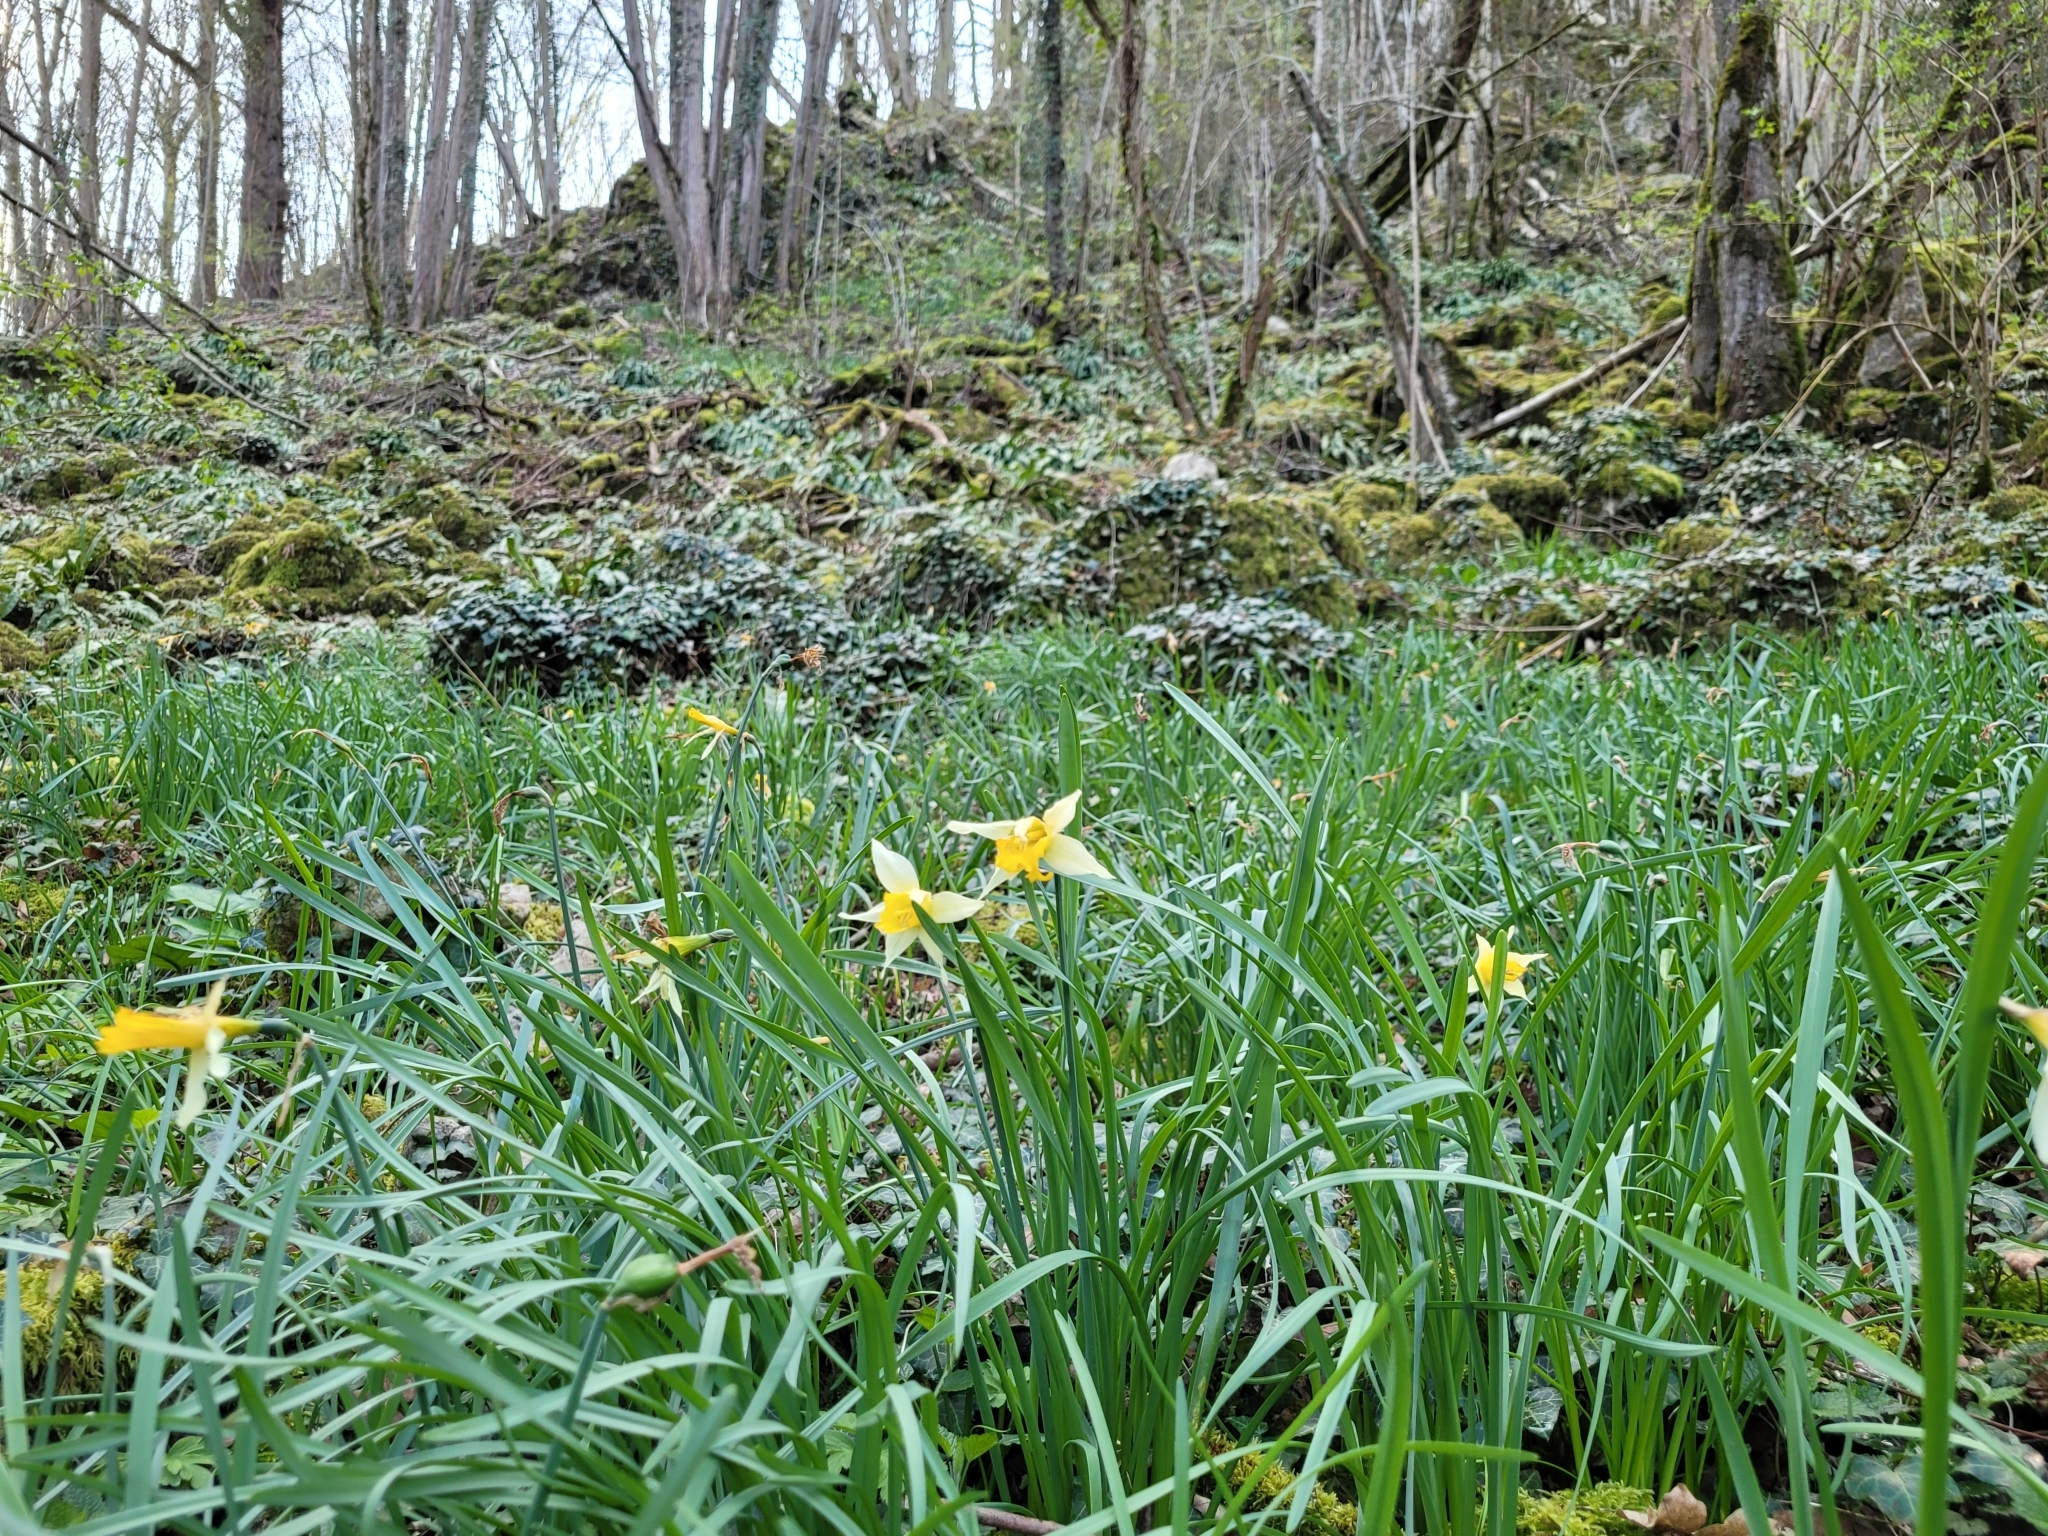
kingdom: Plantae
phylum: Tracheophyta
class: Liliopsida
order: Asparagales
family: Amaryllidaceae
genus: Narcissus
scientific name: Narcissus pseudonarcissus
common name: Daffodil
